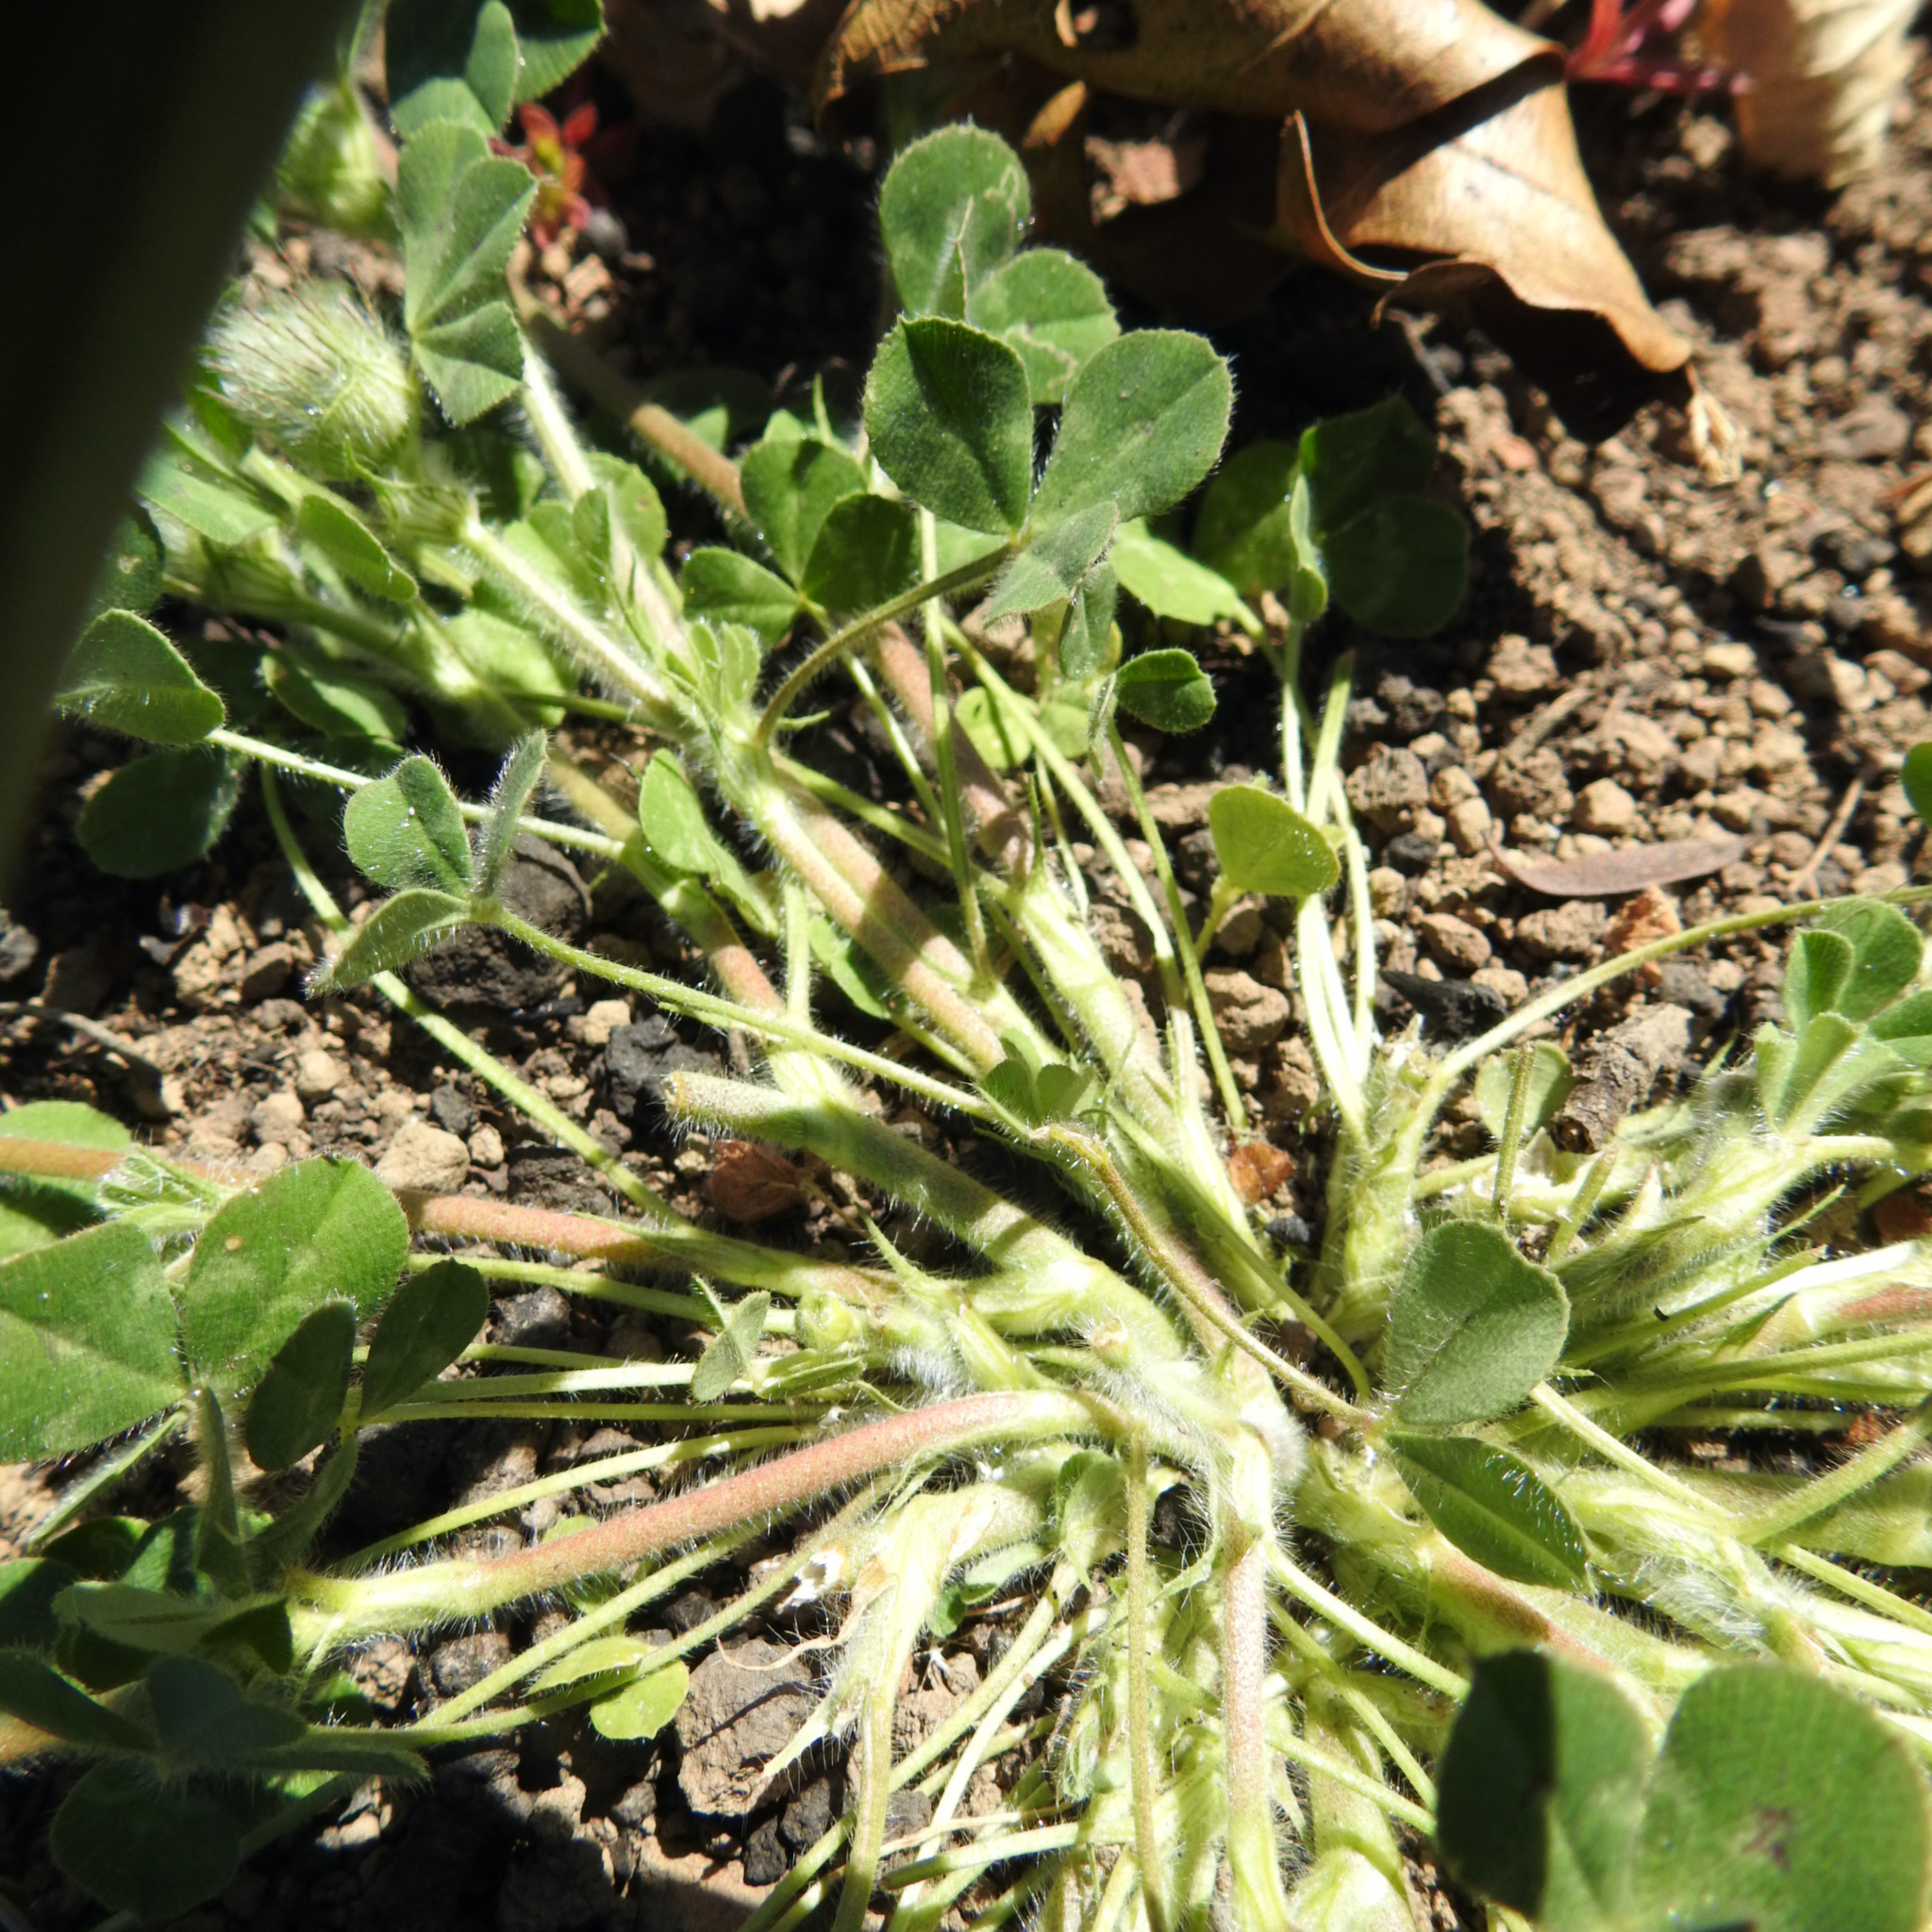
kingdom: Plantae
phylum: Tracheophyta
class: Magnoliopsida
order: Fabales
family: Fabaceae
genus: Trifolium
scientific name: Trifolium hirtum
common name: Rose clover
